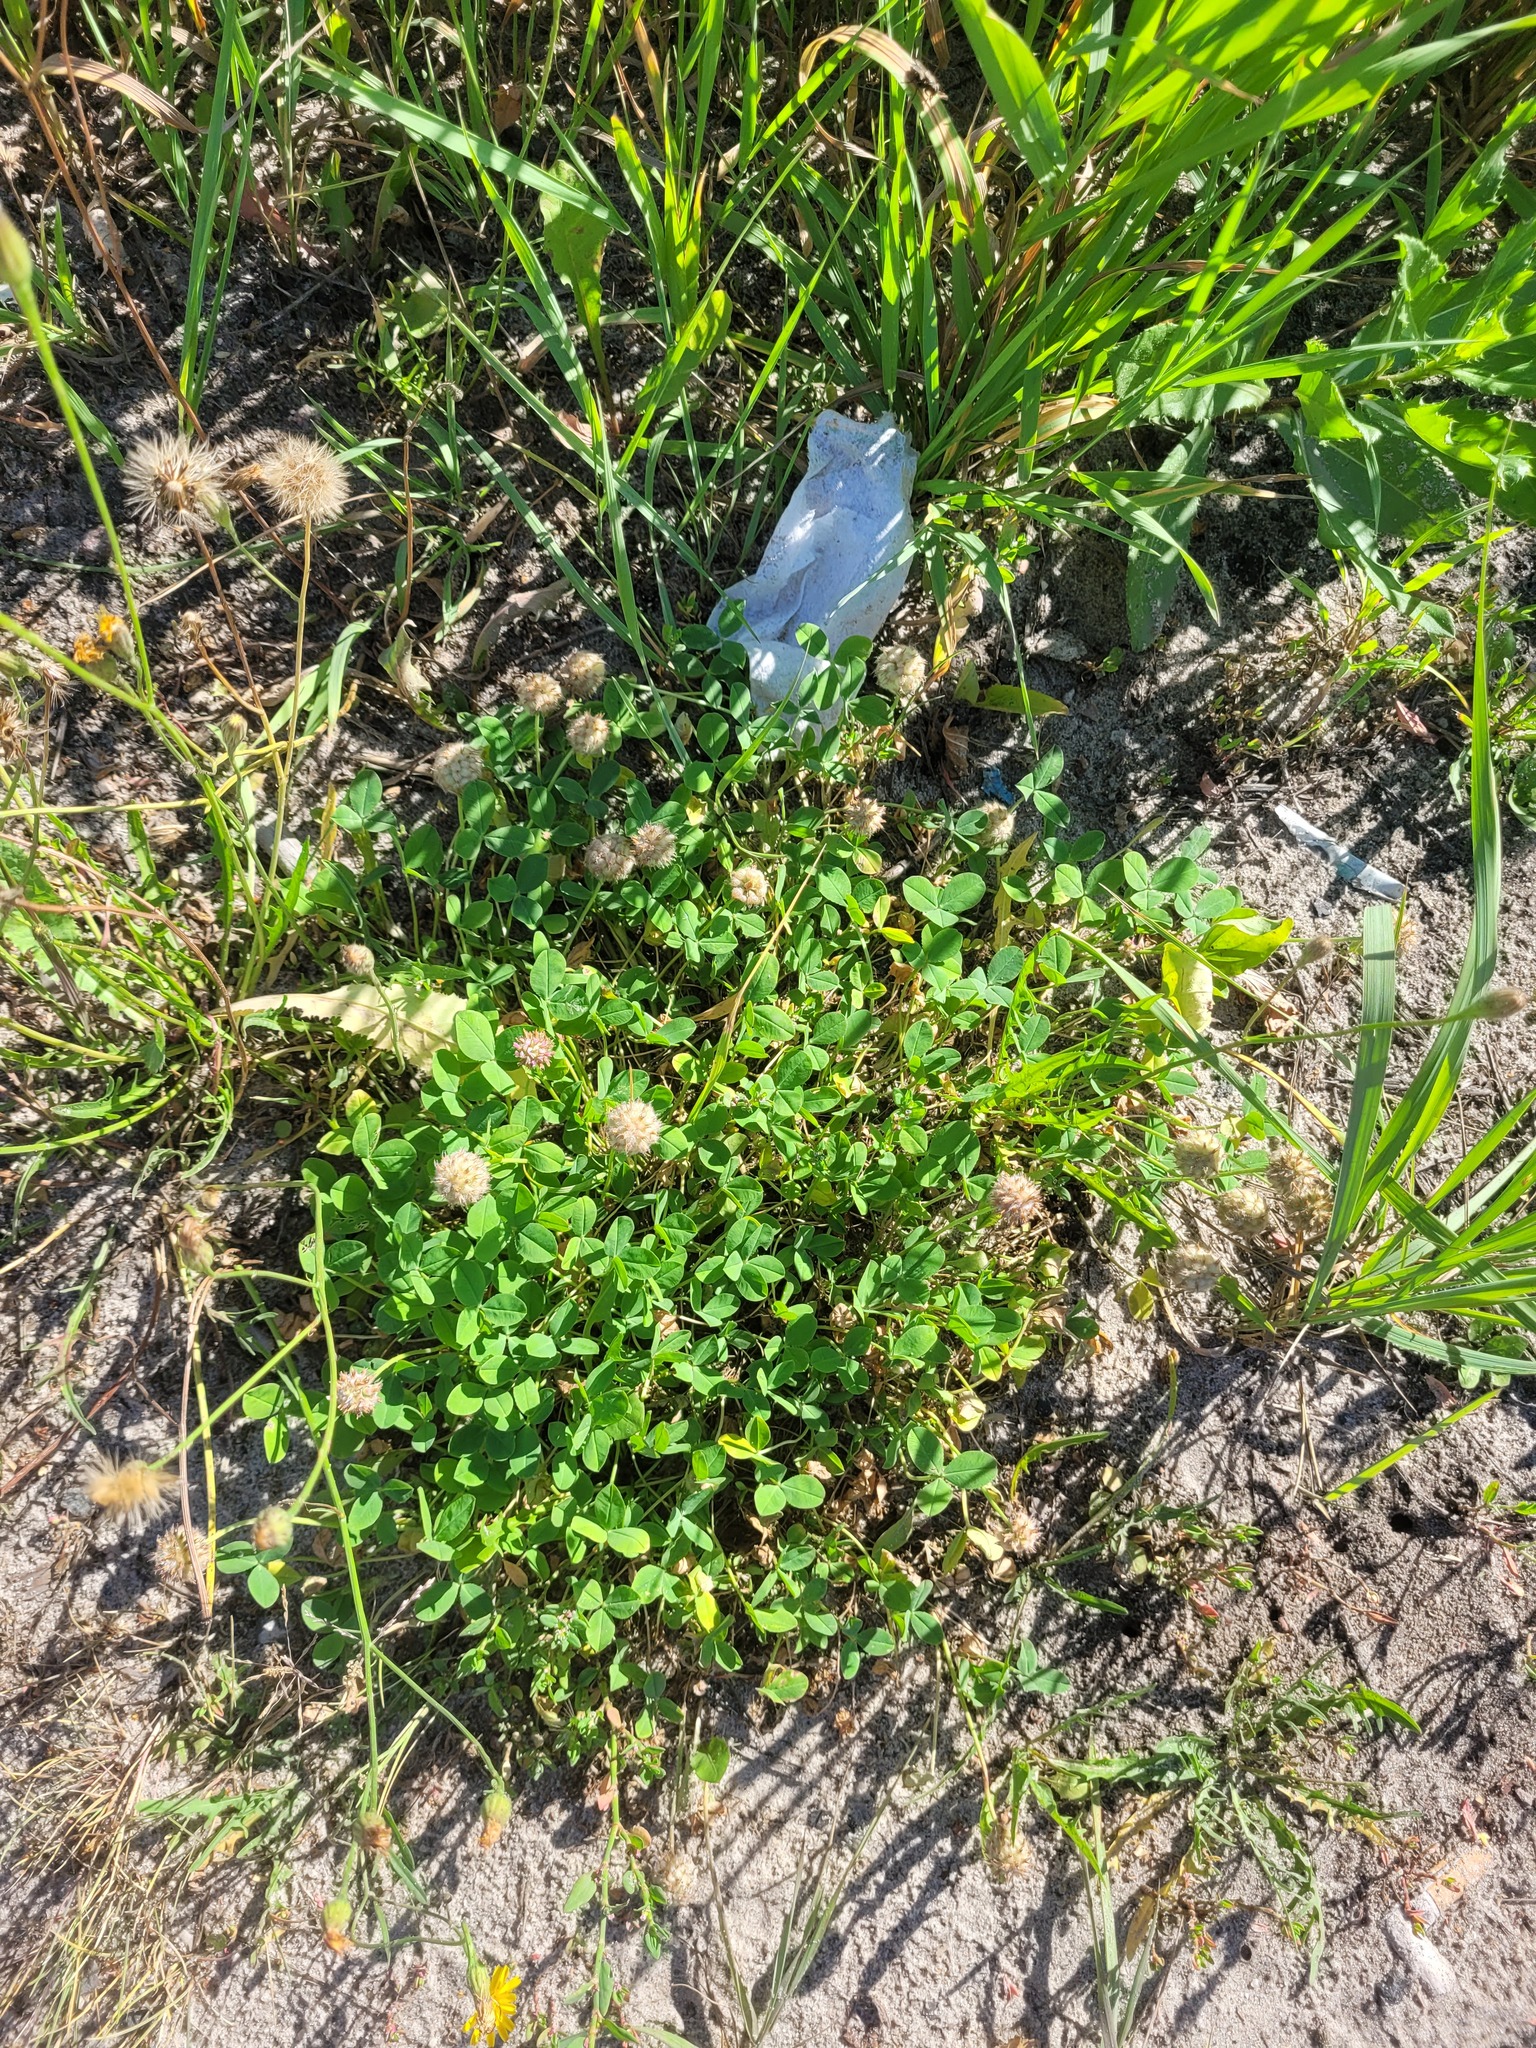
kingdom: Plantae
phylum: Tracheophyta
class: Magnoliopsida
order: Fabales
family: Fabaceae
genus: Trifolium
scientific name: Trifolium fragiferum
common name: Strawberry clover
